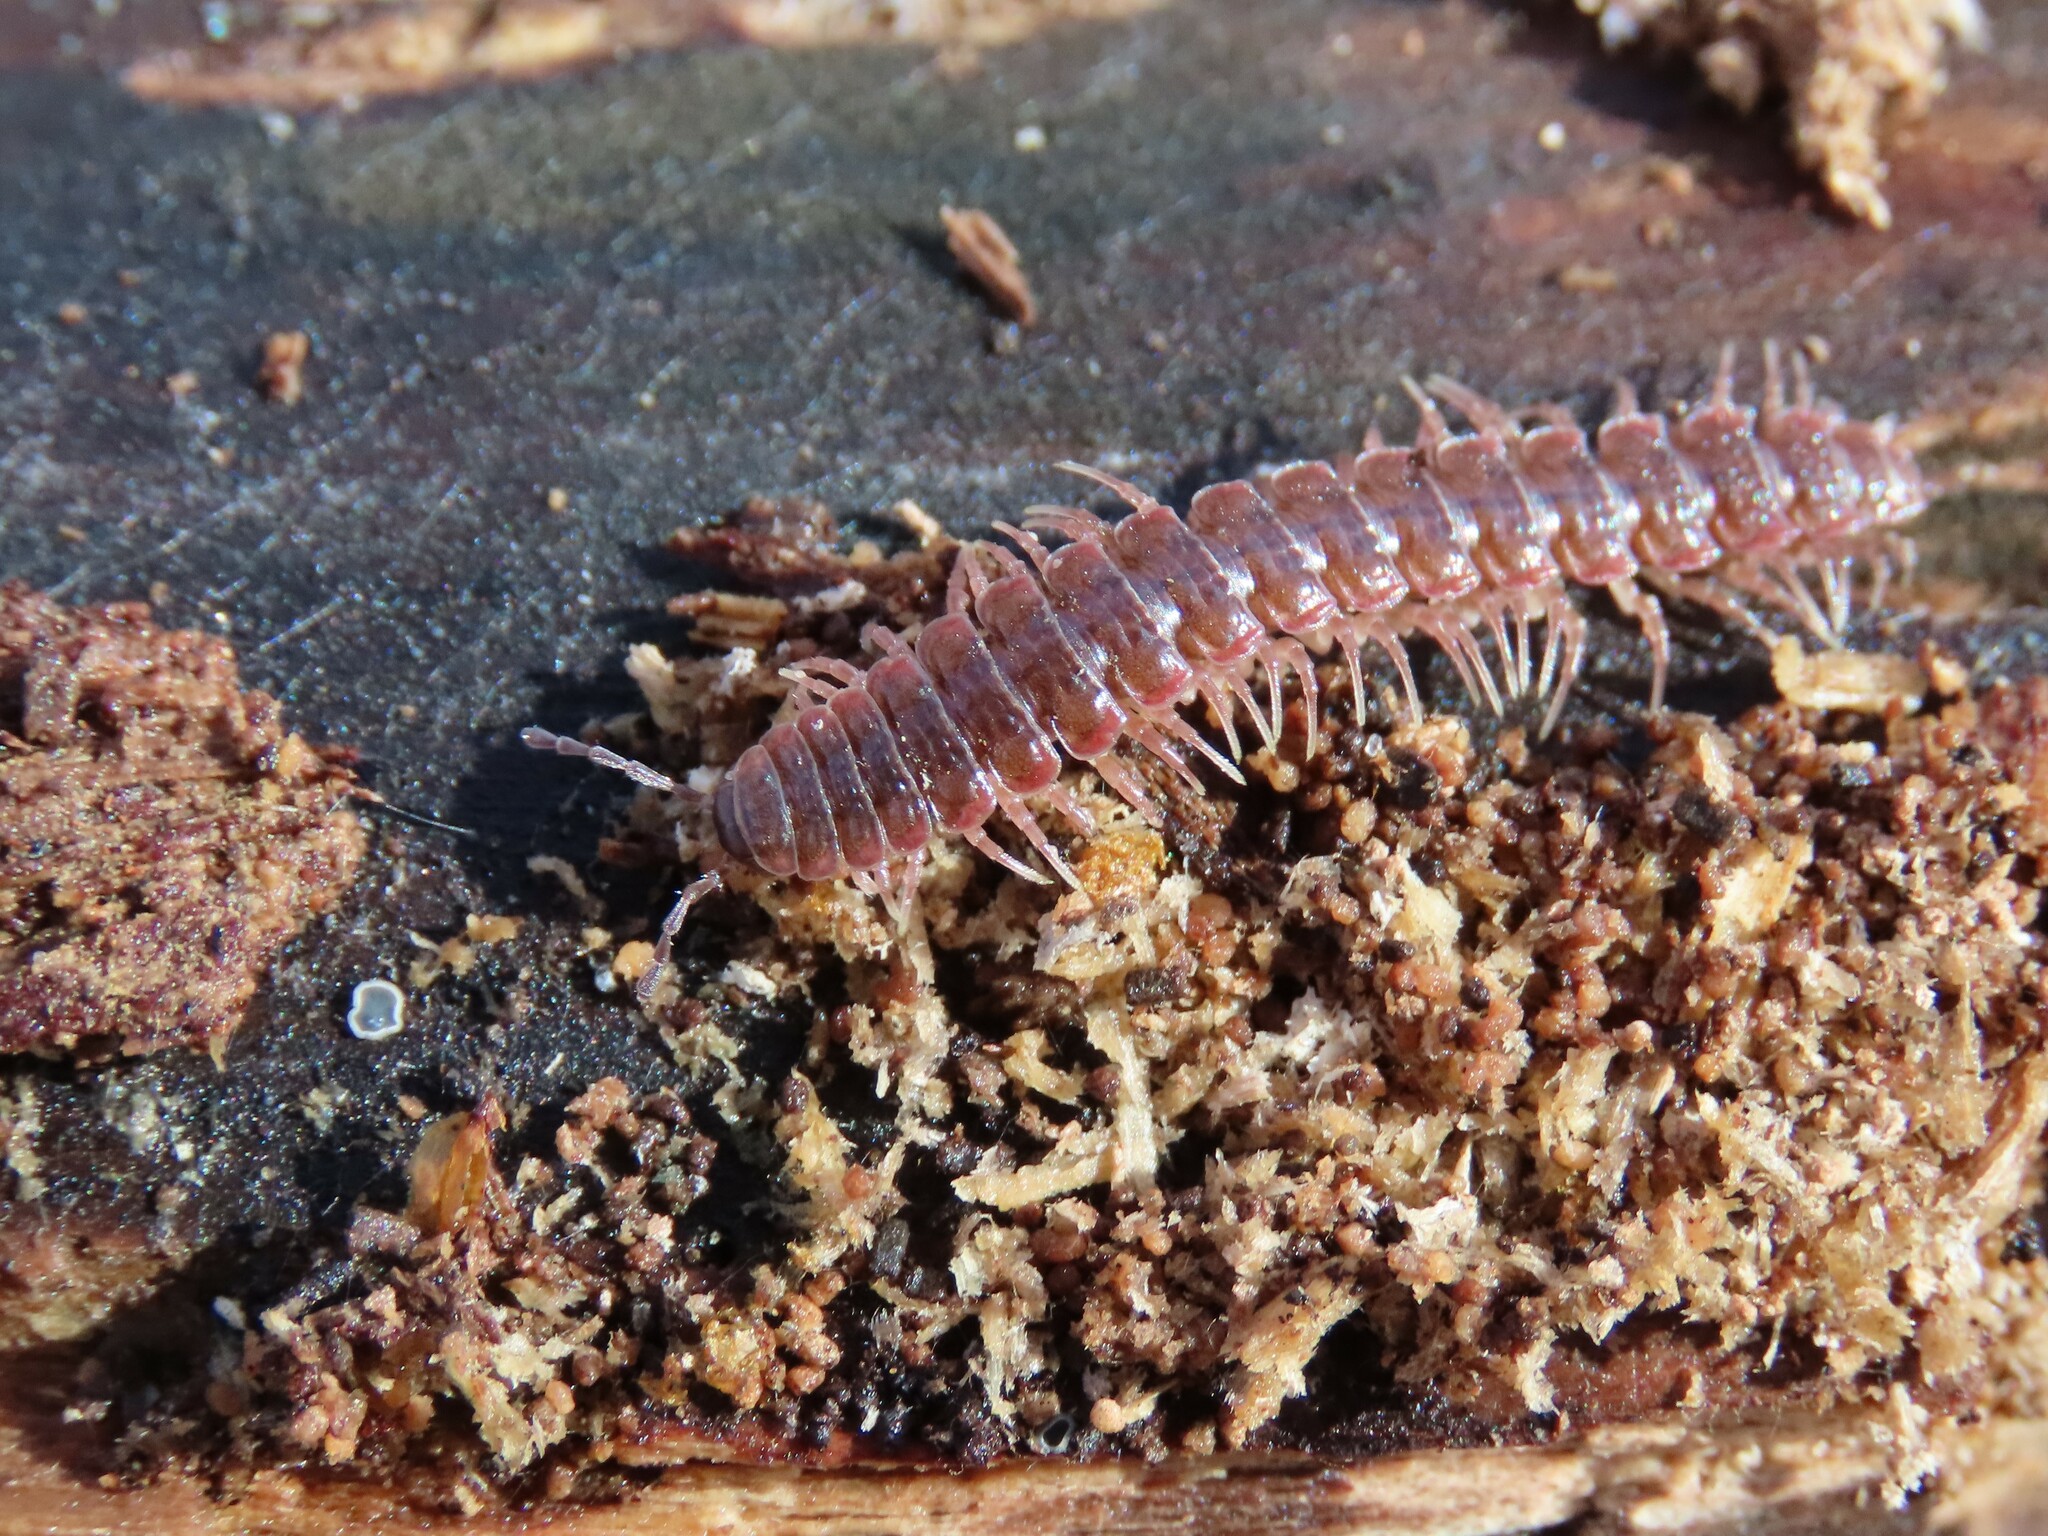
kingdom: Animalia
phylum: Arthropoda
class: Diplopoda
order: Polydesmida
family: Polydesmidae
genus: Pseudopolydesmus
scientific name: Pseudopolydesmus serratus
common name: Common pink flat-back millipede
